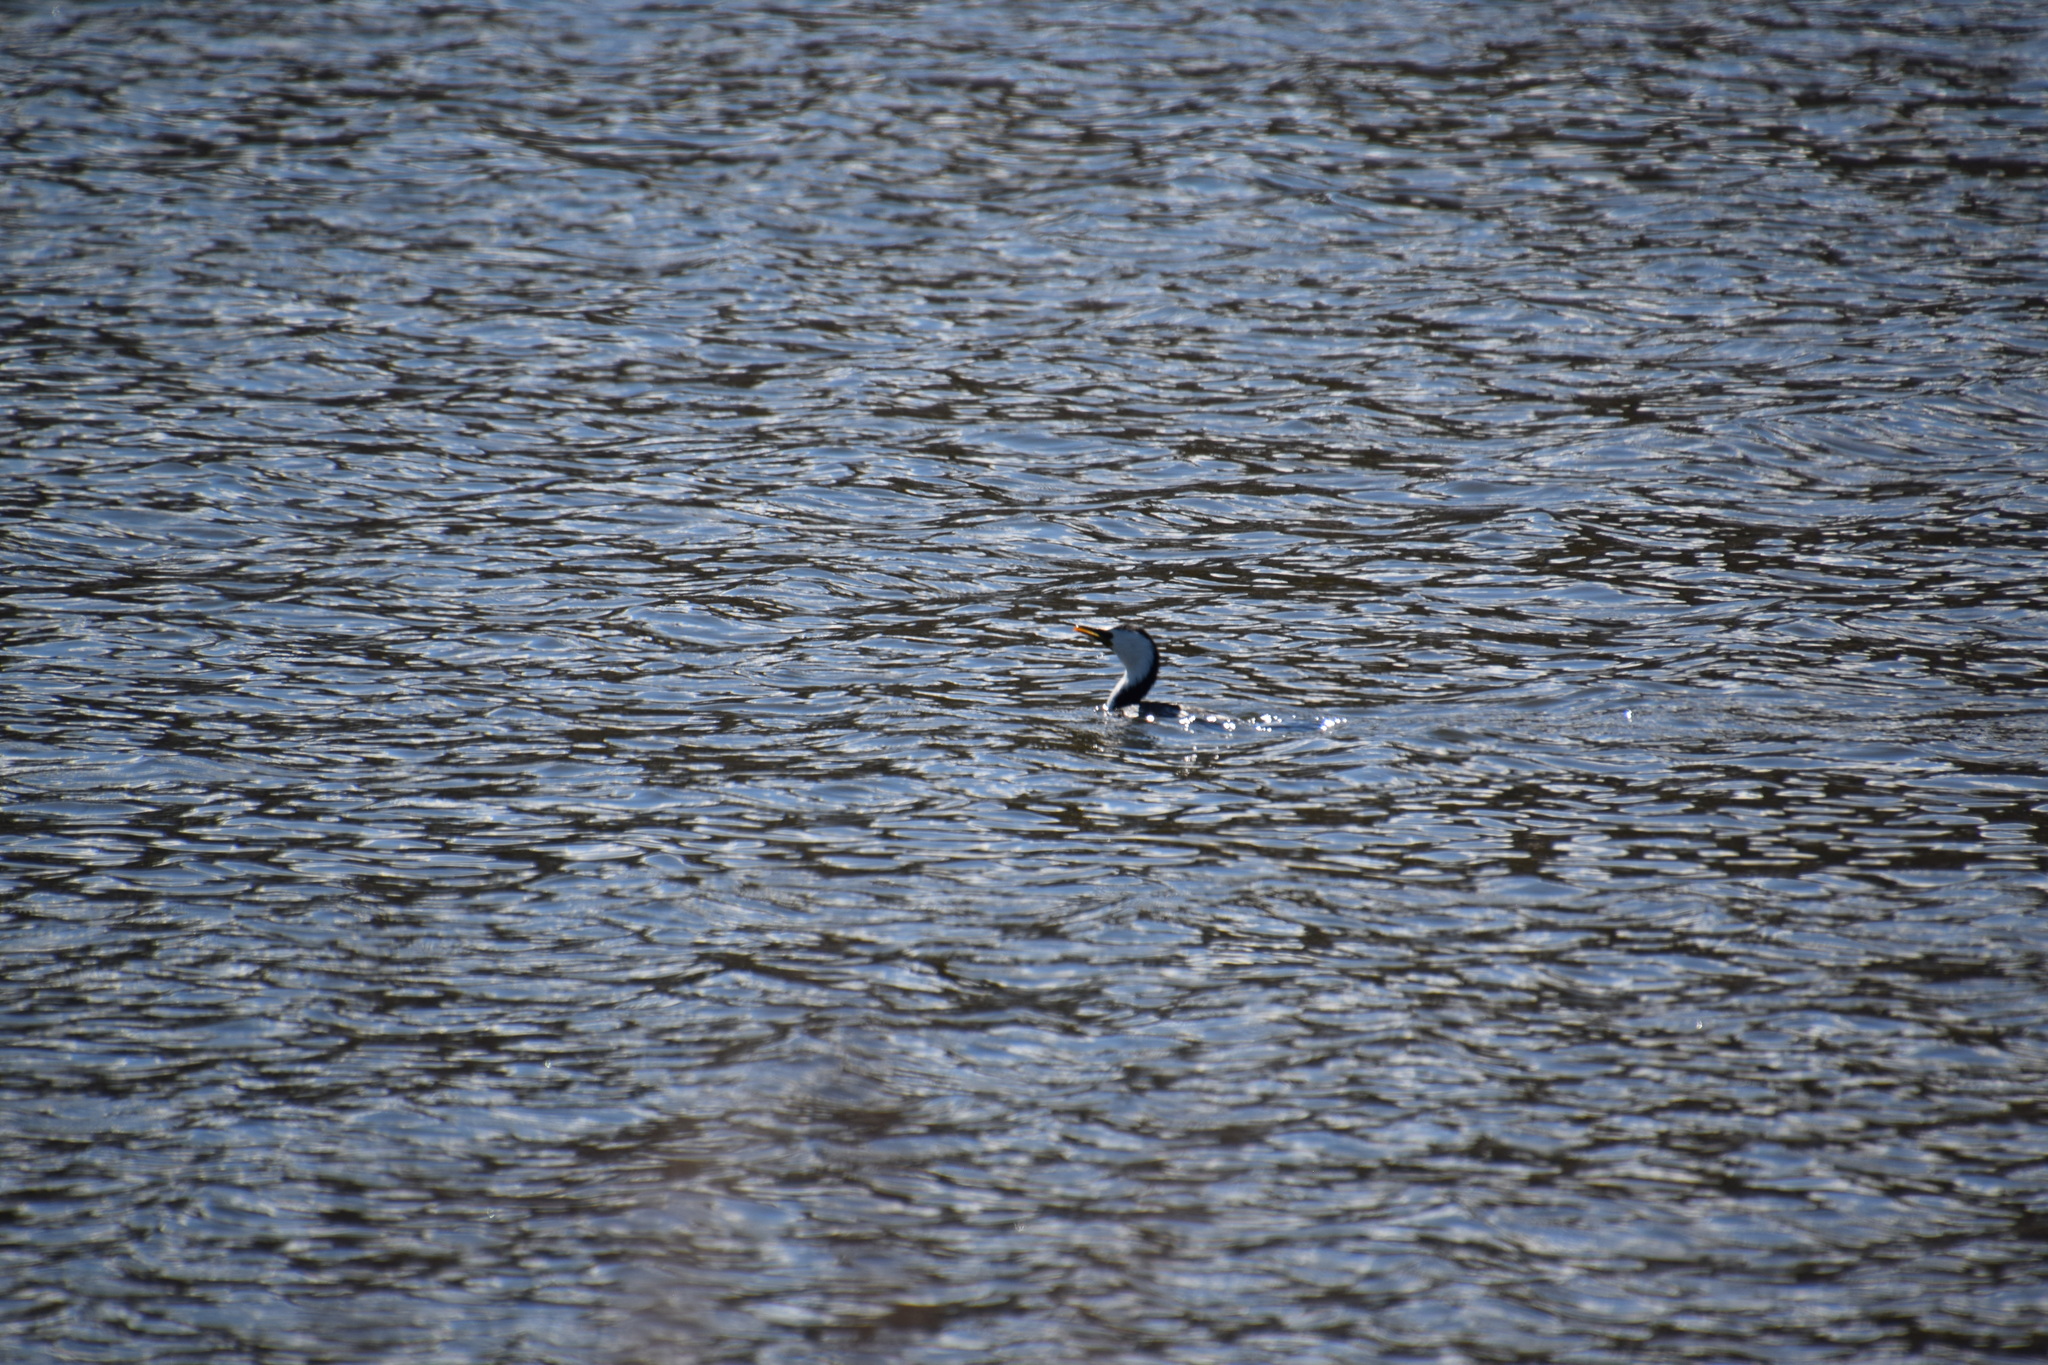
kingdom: Animalia
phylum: Chordata
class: Aves
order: Suliformes
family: Phalacrocoracidae
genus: Microcarbo
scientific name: Microcarbo melanoleucos
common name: Little pied cormorant
